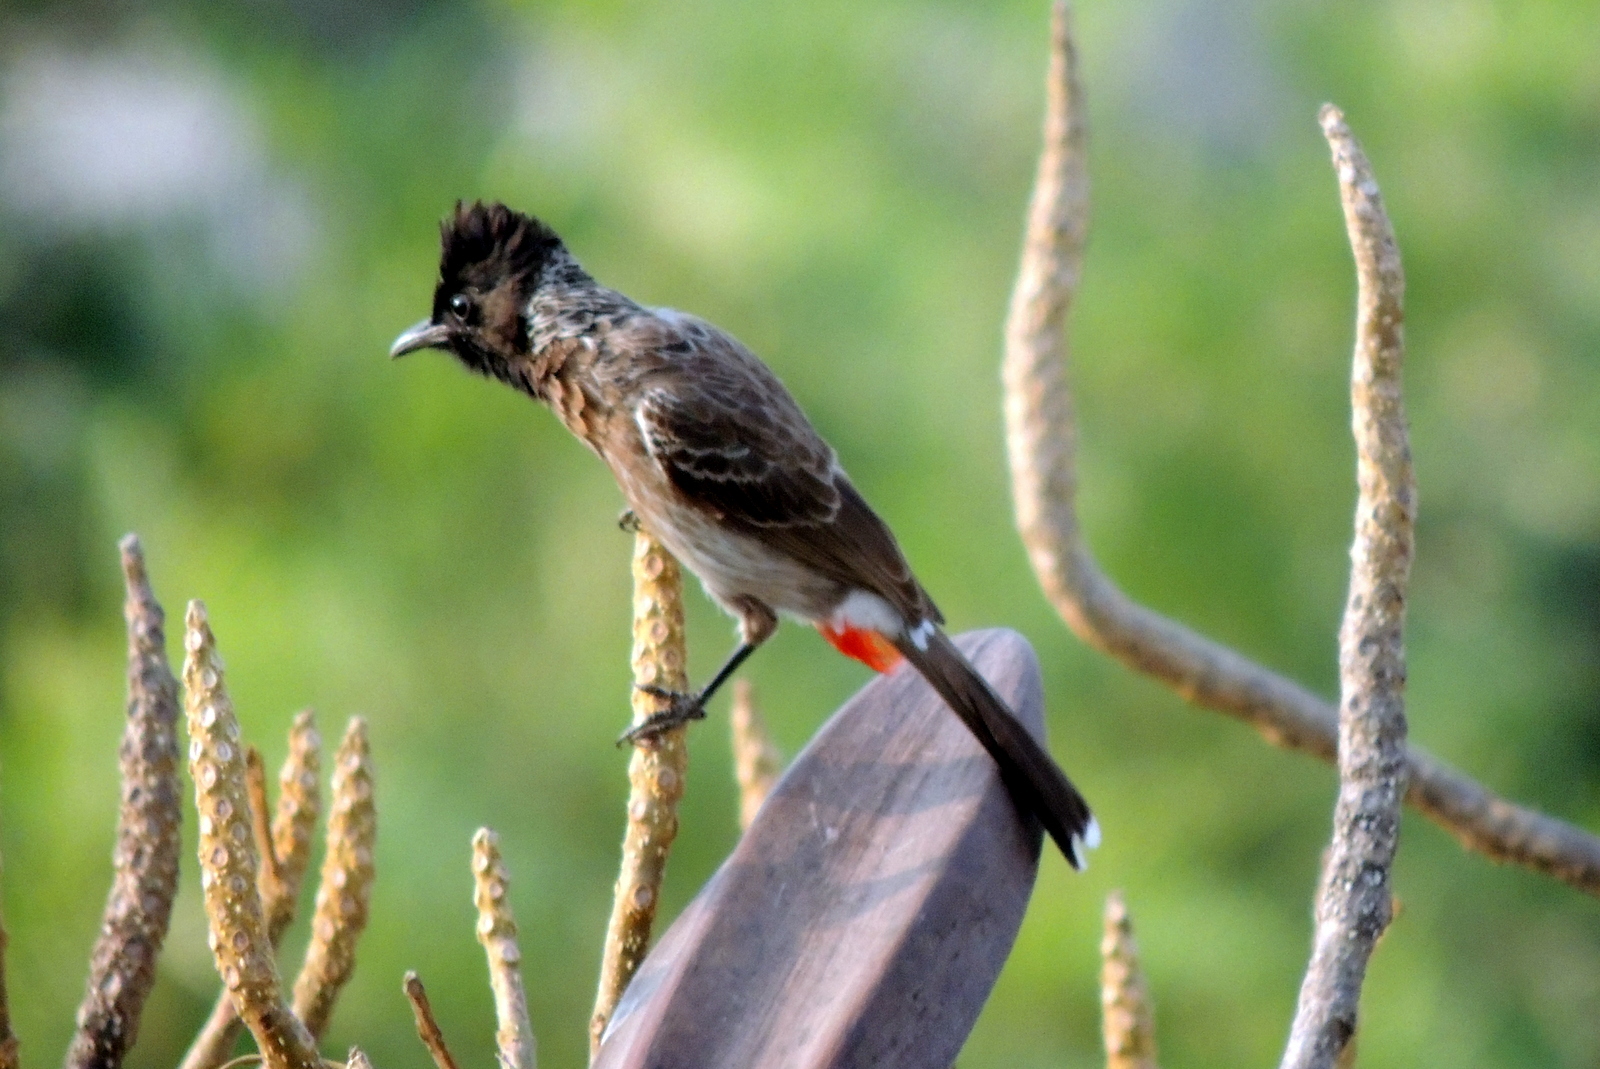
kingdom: Animalia
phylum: Chordata
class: Aves
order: Passeriformes
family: Pycnonotidae
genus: Pycnonotus
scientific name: Pycnonotus cafer
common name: Red-vented bulbul
